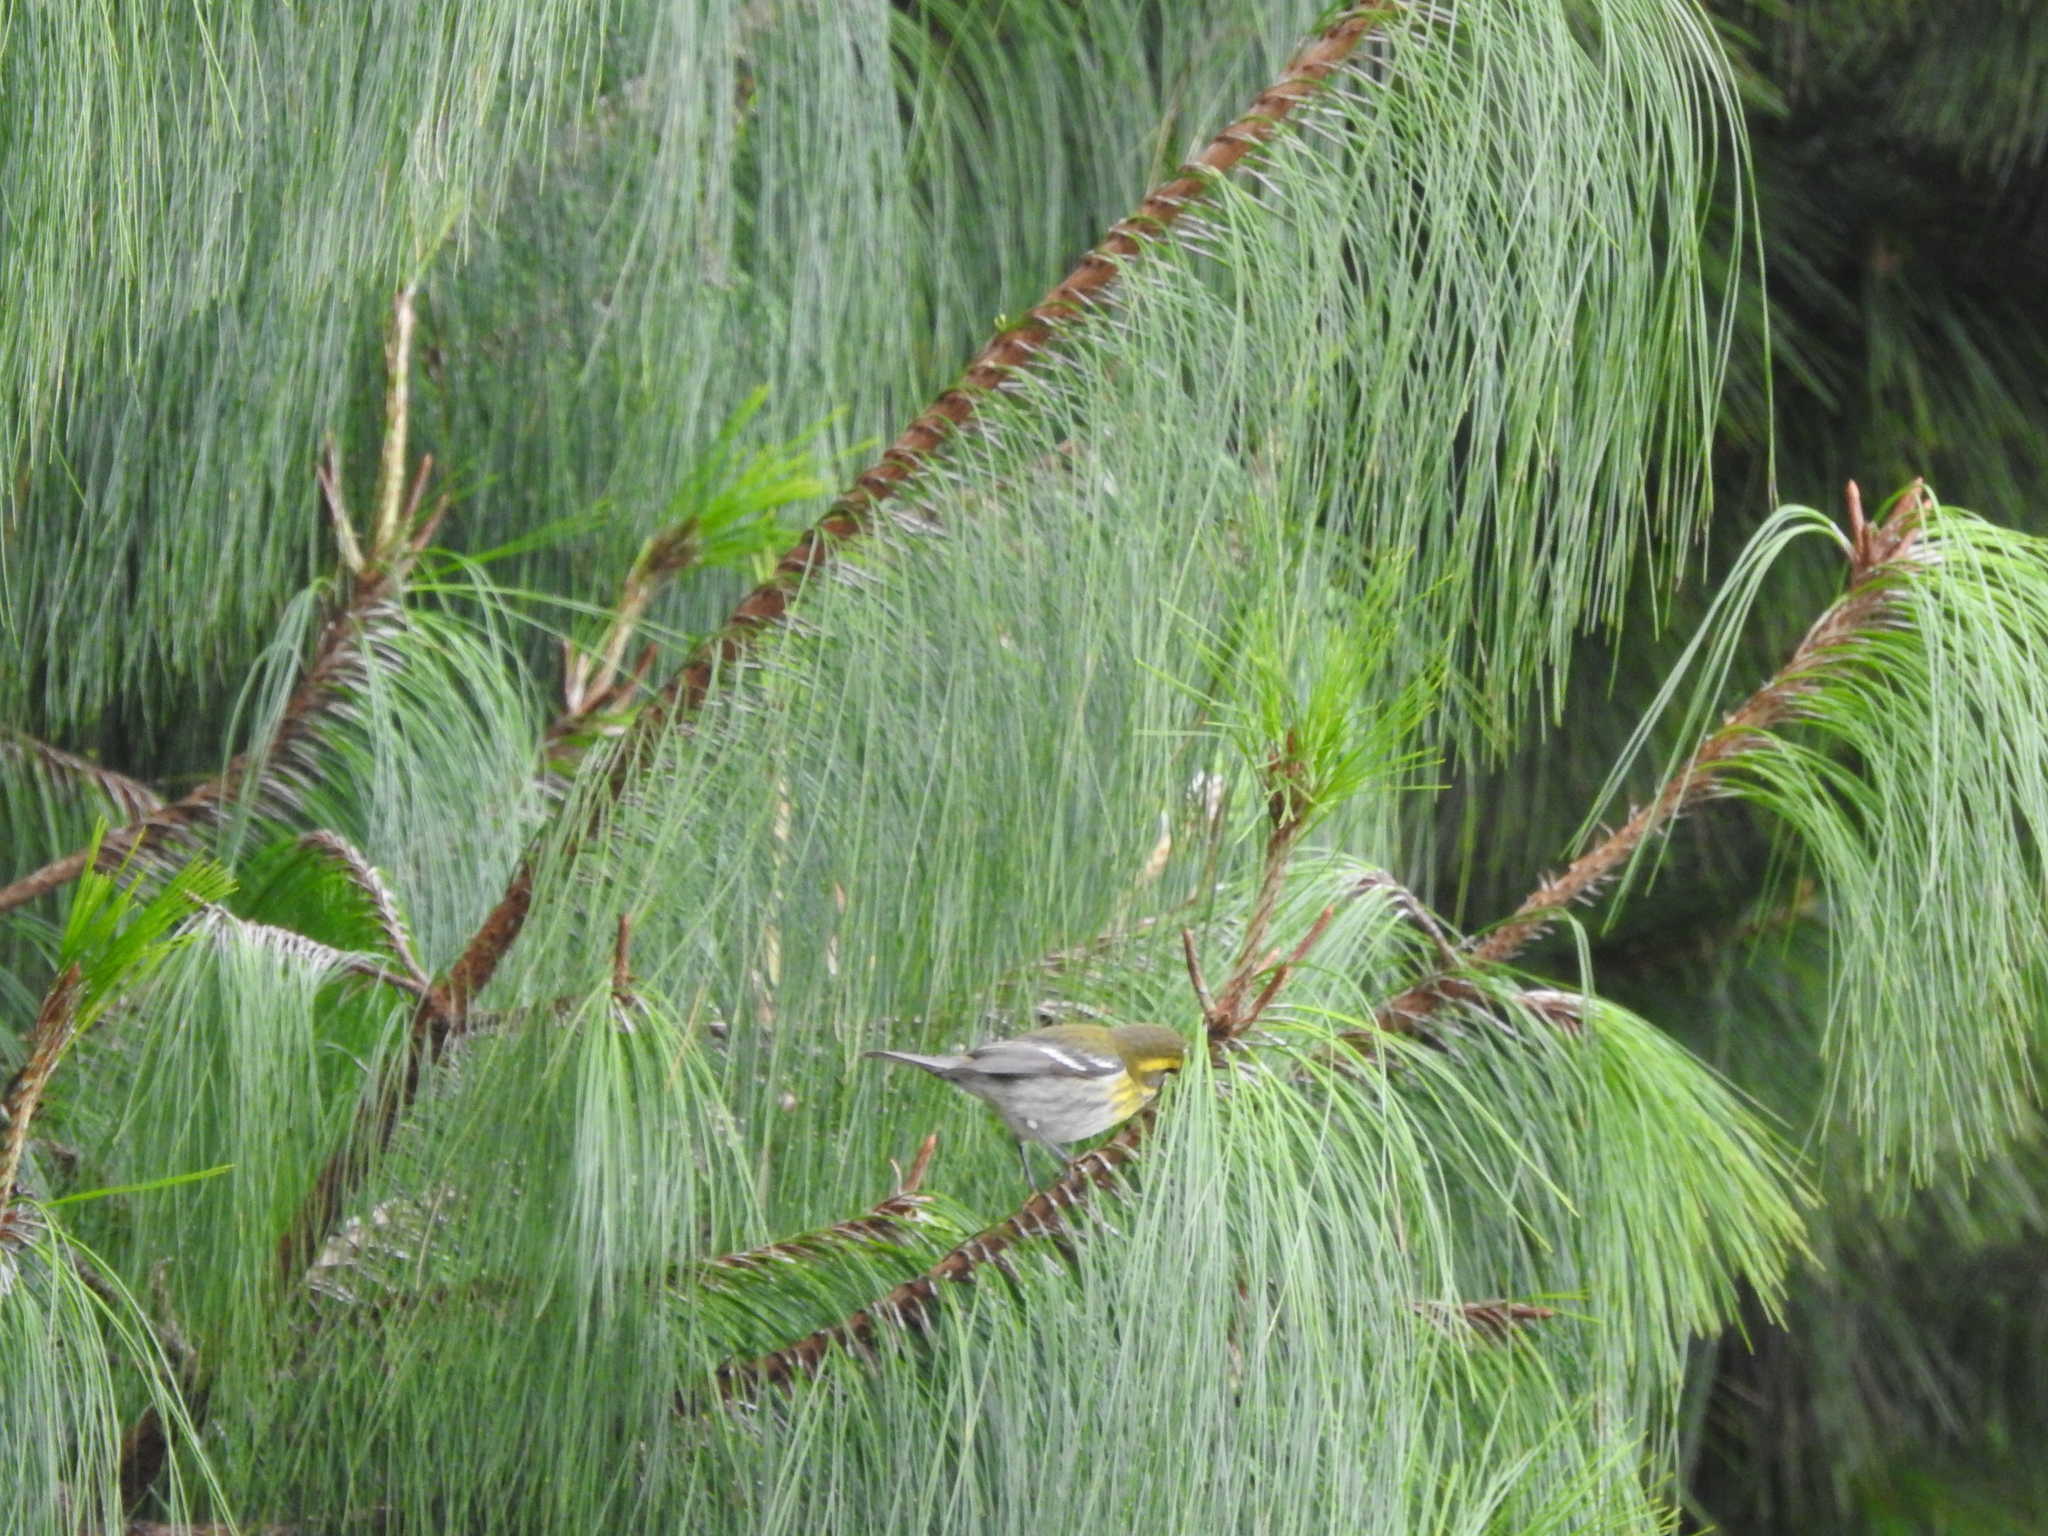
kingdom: Animalia
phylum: Chordata
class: Aves
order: Passeriformes
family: Parulidae
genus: Setophaga
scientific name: Setophaga townsendi
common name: Townsend's warbler
